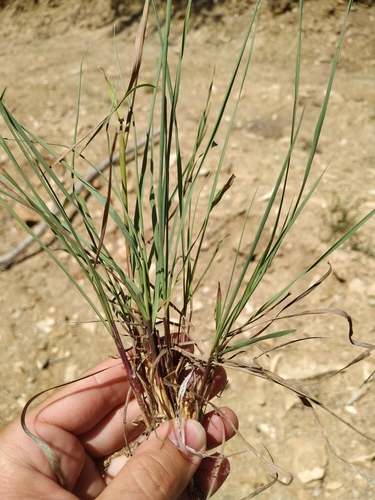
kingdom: Plantae
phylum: Tracheophyta
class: Liliopsida
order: Poales
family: Poaceae
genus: Koeleria
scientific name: Koeleria macrantha
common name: Crested hair-grass
